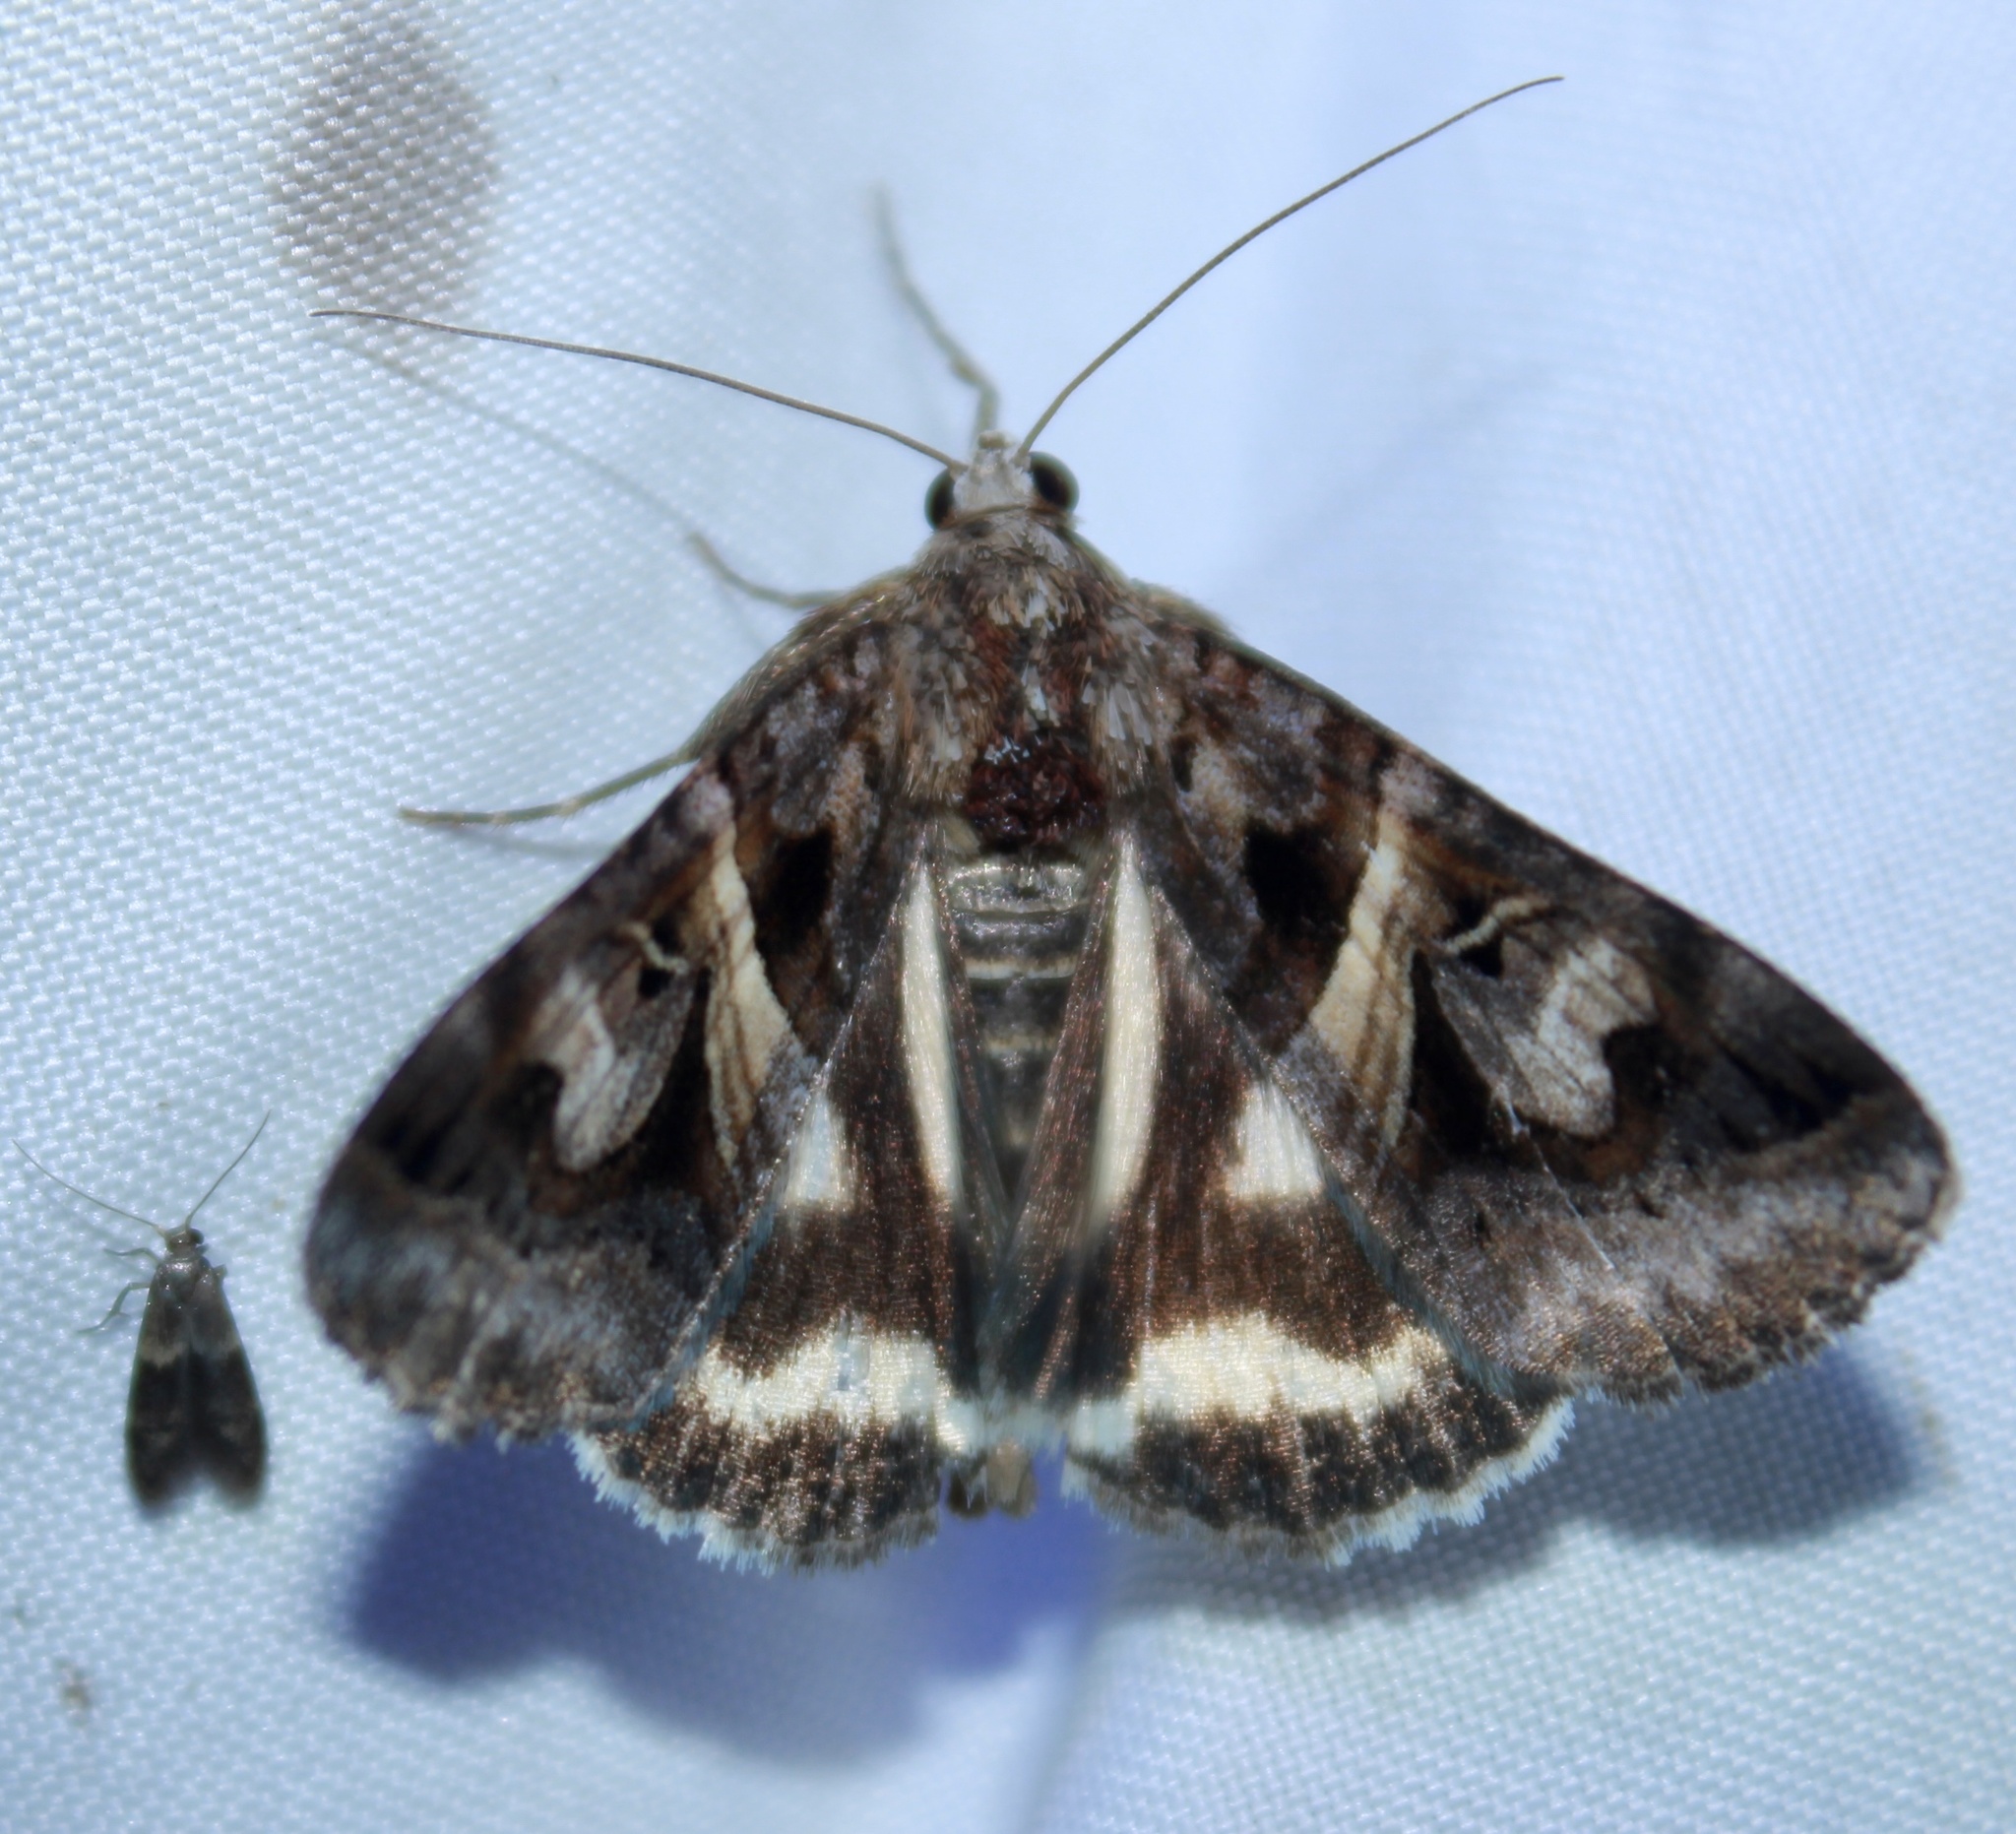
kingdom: Animalia
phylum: Arthropoda
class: Insecta
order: Lepidoptera
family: Erebidae
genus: Drasteria
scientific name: Drasteria grandirena
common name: Figure-seven moth
